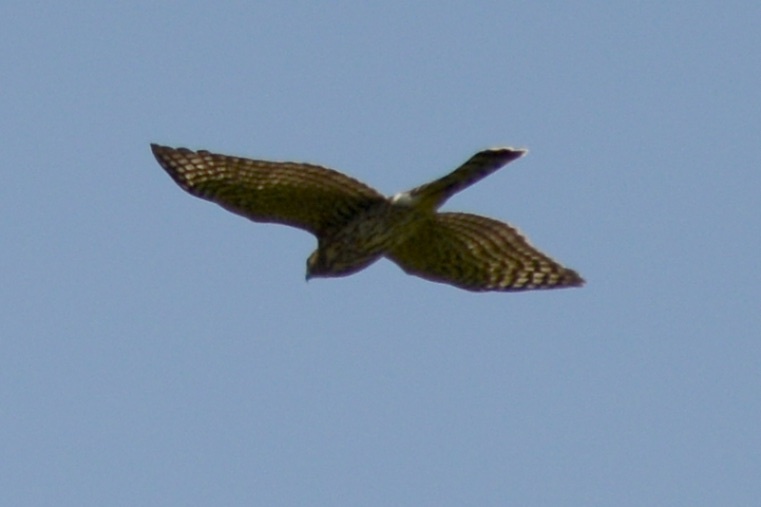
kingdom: Animalia
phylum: Chordata
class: Aves
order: Accipitriformes
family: Accipitridae
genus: Accipiter
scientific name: Accipiter cooperii
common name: Cooper's hawk
